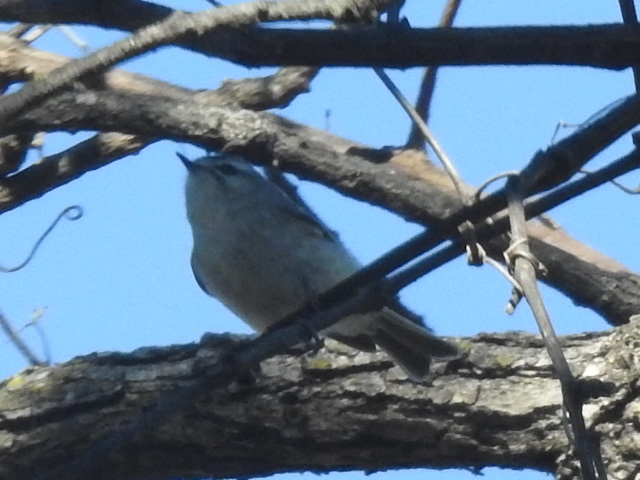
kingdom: Animalia
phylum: Chordata
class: Aves
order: Passeriformes
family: Regulidae
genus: Regulus
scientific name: Regulus satrapa
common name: Golden-crowned kinglet
